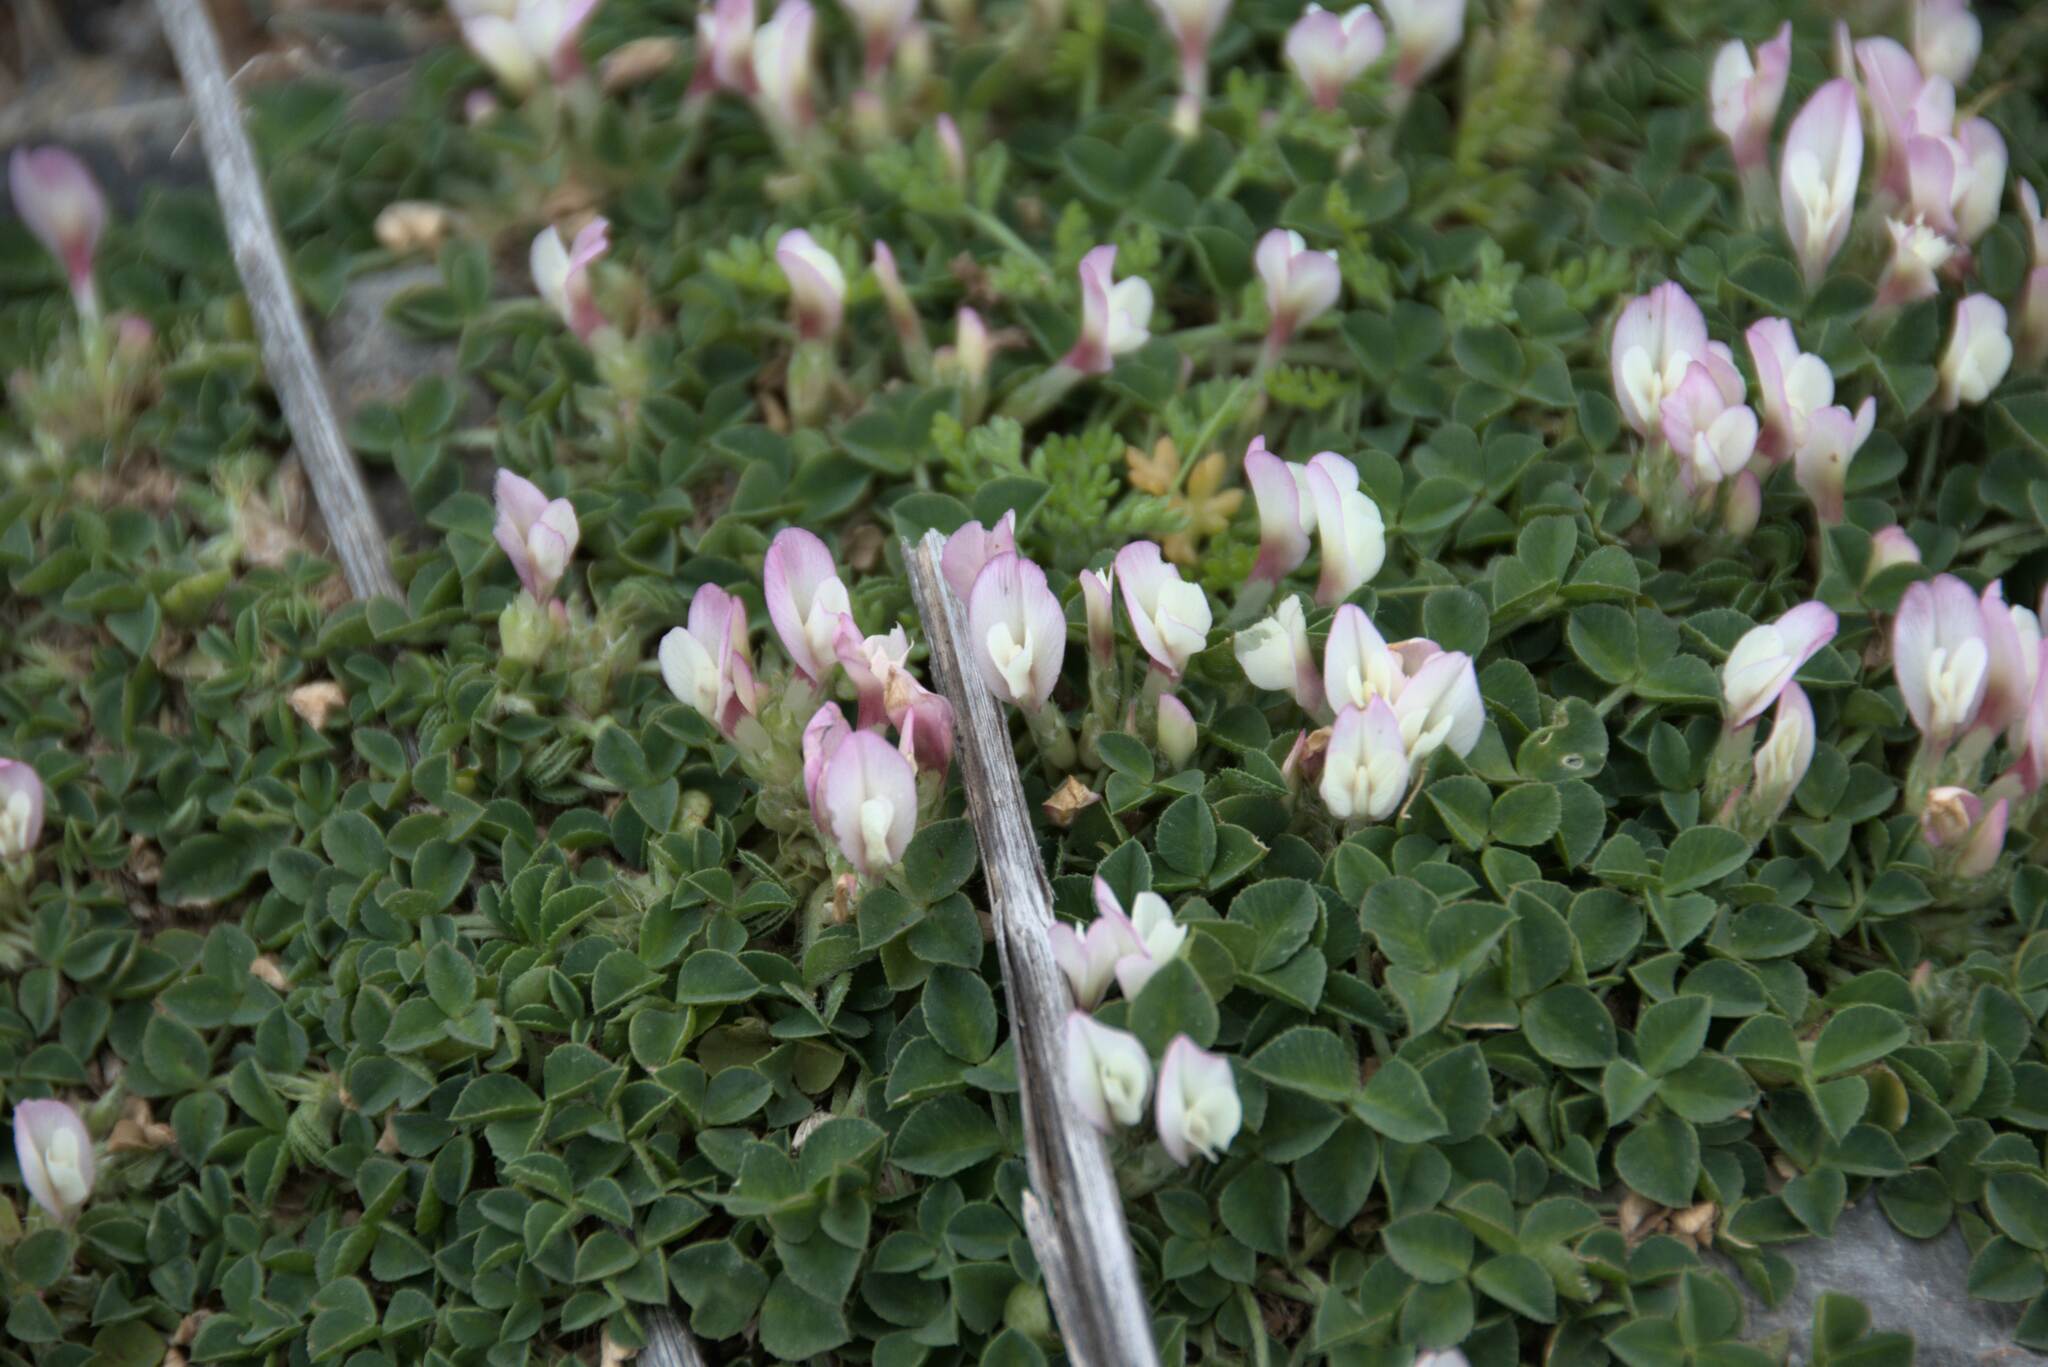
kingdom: Plantae
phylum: Tracheophyta
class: Magnoliopsida
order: Fabales
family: Fabaceae
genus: Trifolium
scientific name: Trifolium uniflorum
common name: One-flower clover
